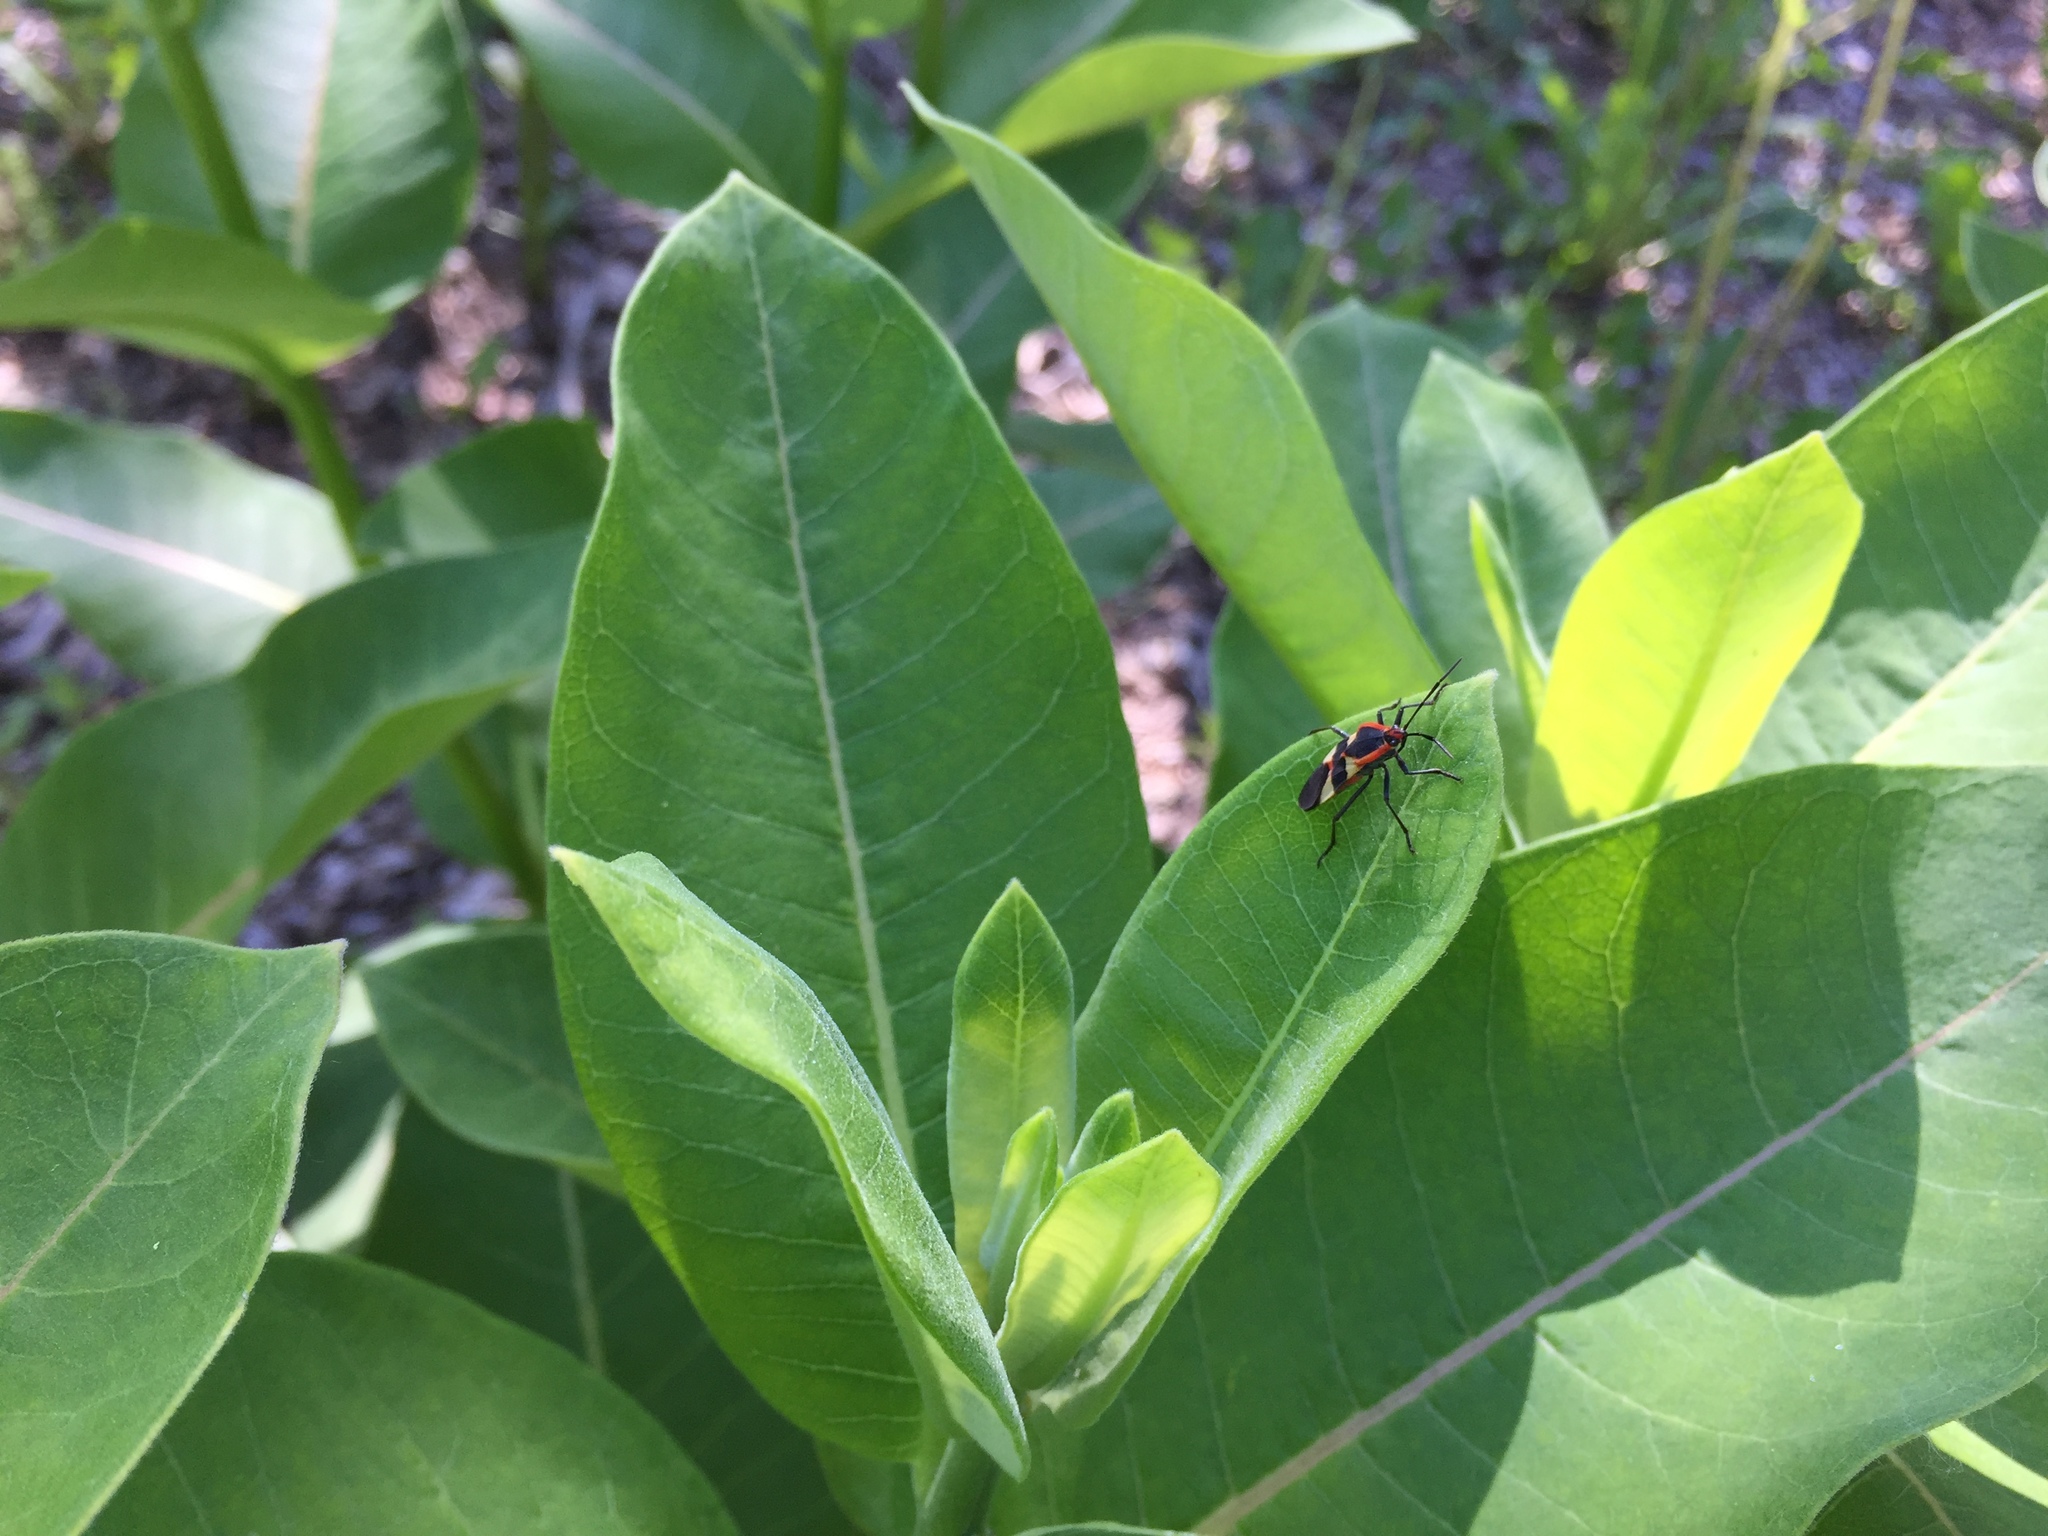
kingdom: Animalia
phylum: Arthropoda
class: Insecta
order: Hemiptera
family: Lygaeidae
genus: Oncopeltus
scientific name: Oncopeltus fasciatus
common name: Large milkweed bug
